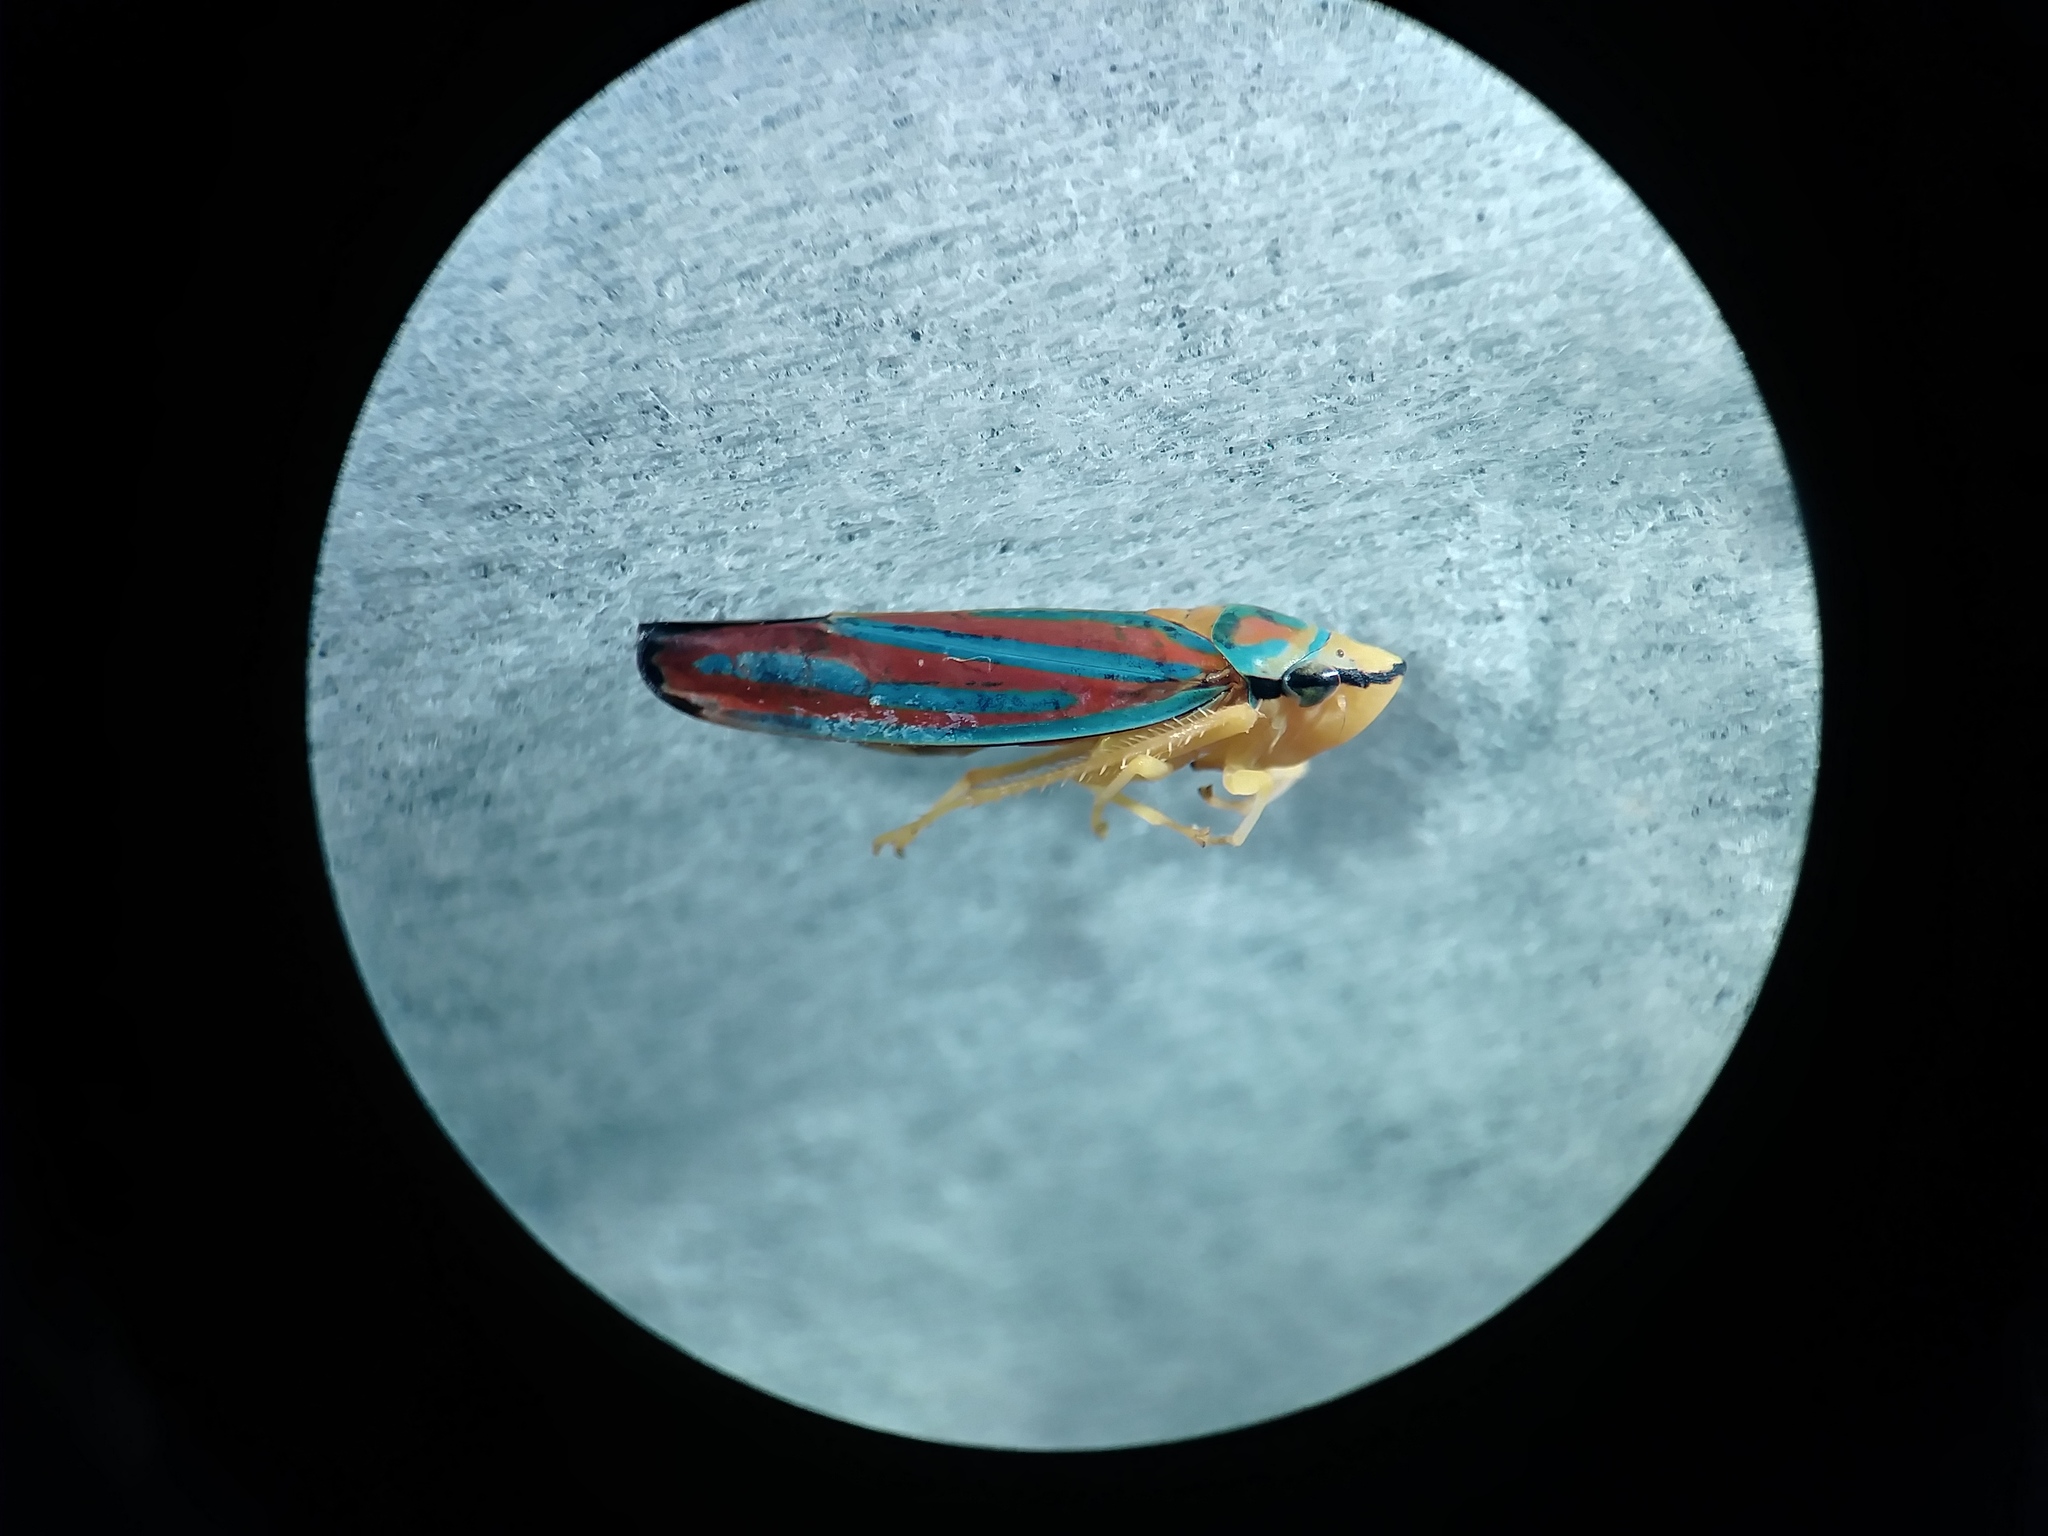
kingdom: Animalia
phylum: Arthropoda
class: Insecta
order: Hemiptera
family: Cicadellidae
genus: Graphocephala
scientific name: Graphocephala coccinea
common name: Candy-striped leafhopper
